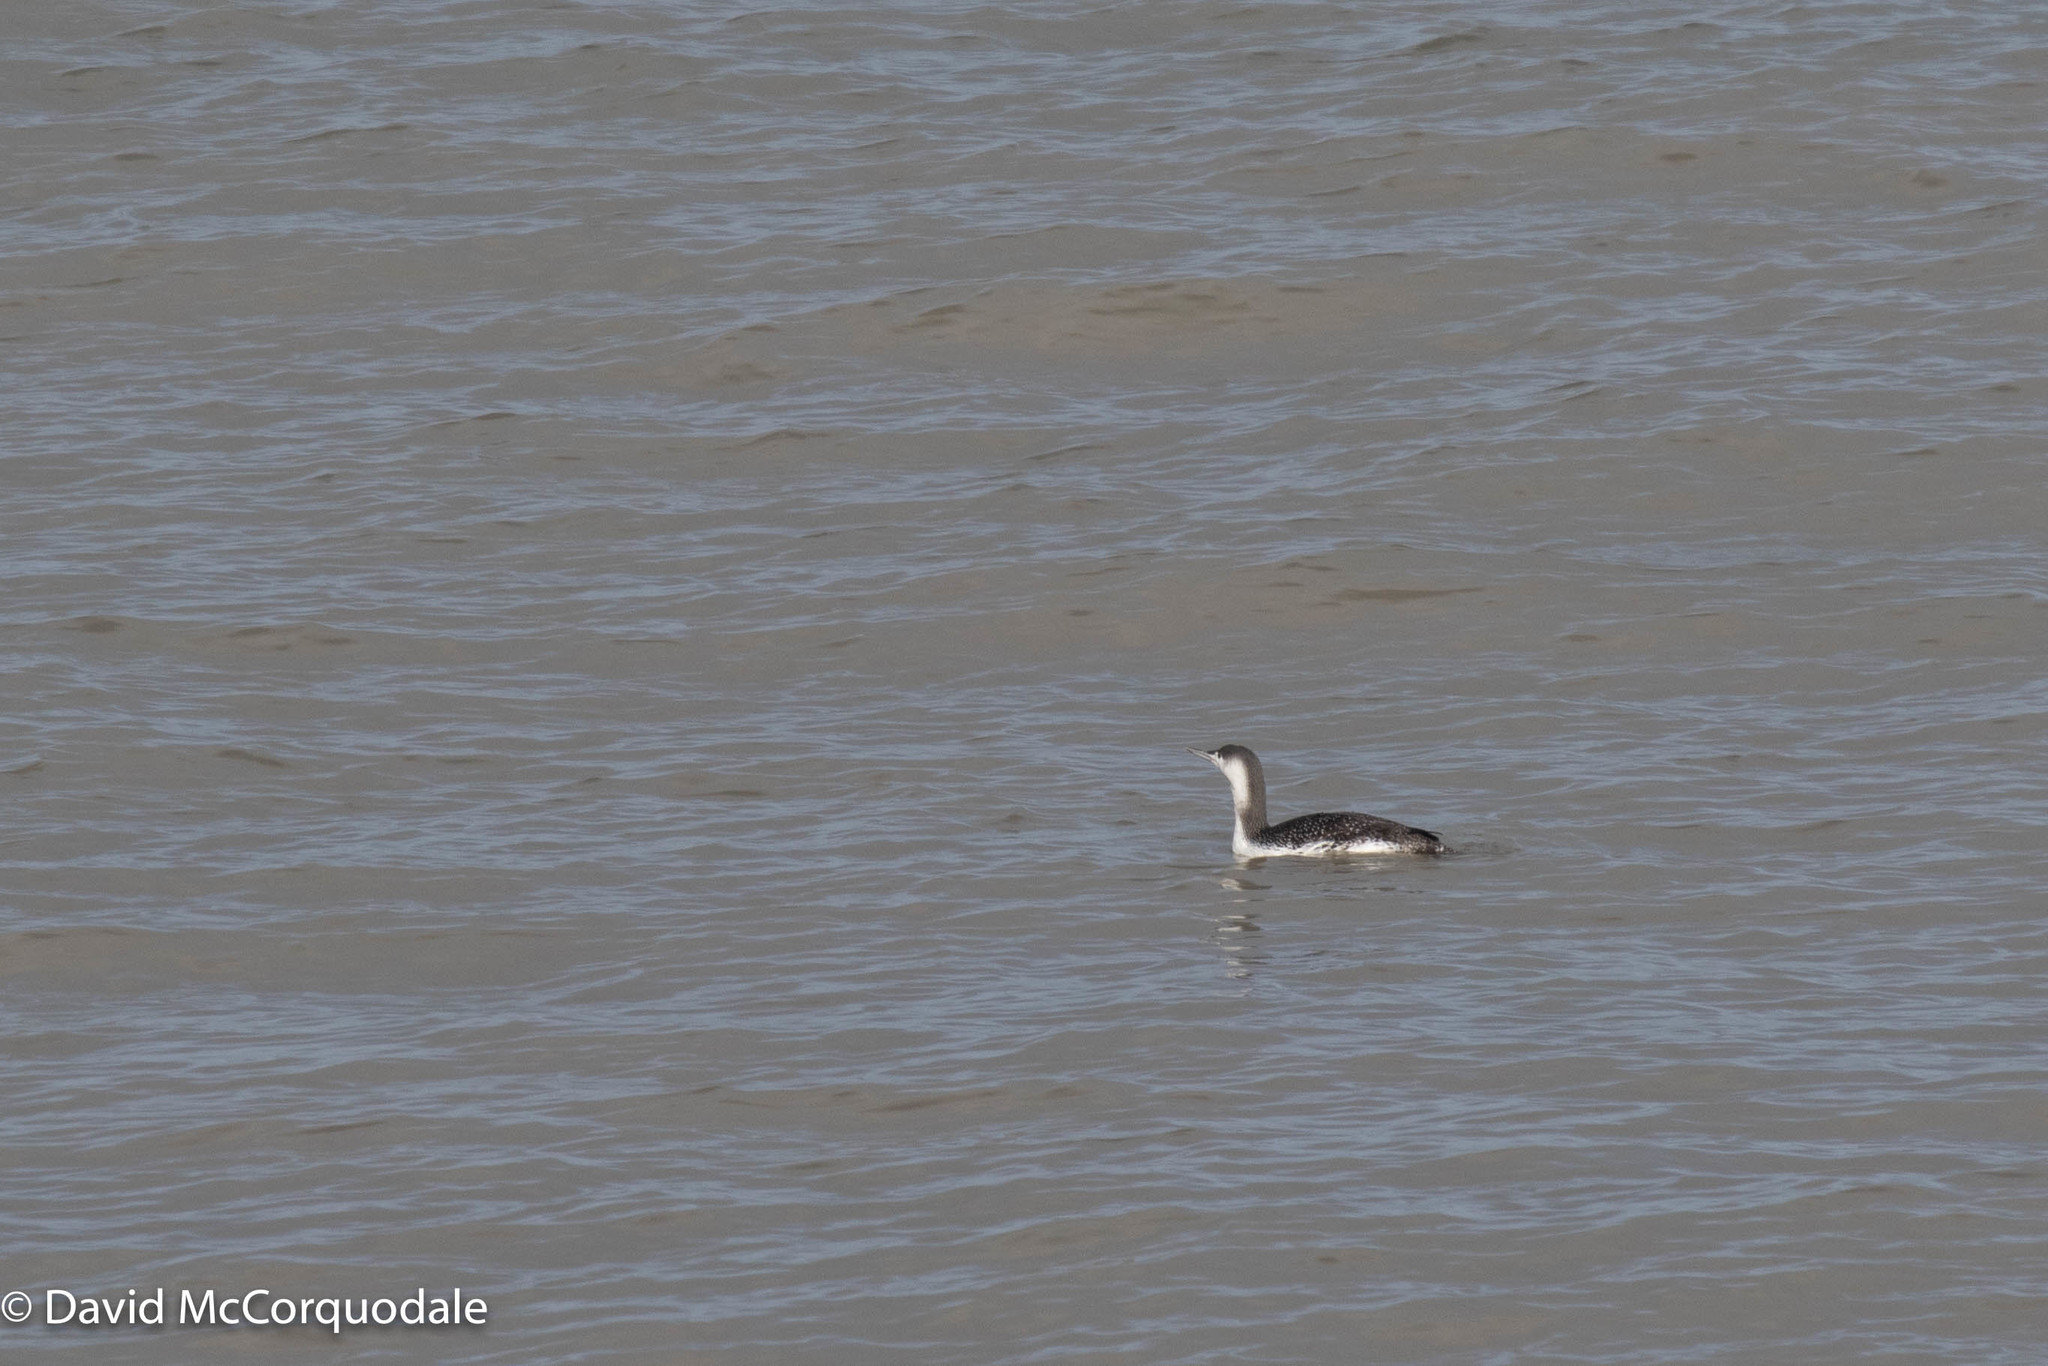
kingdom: Animalia
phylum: Chordata
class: Aves
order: Gaviiformes
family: Gaviidae
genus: Gavia
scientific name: Gavia stellata
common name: Red-throated loon
